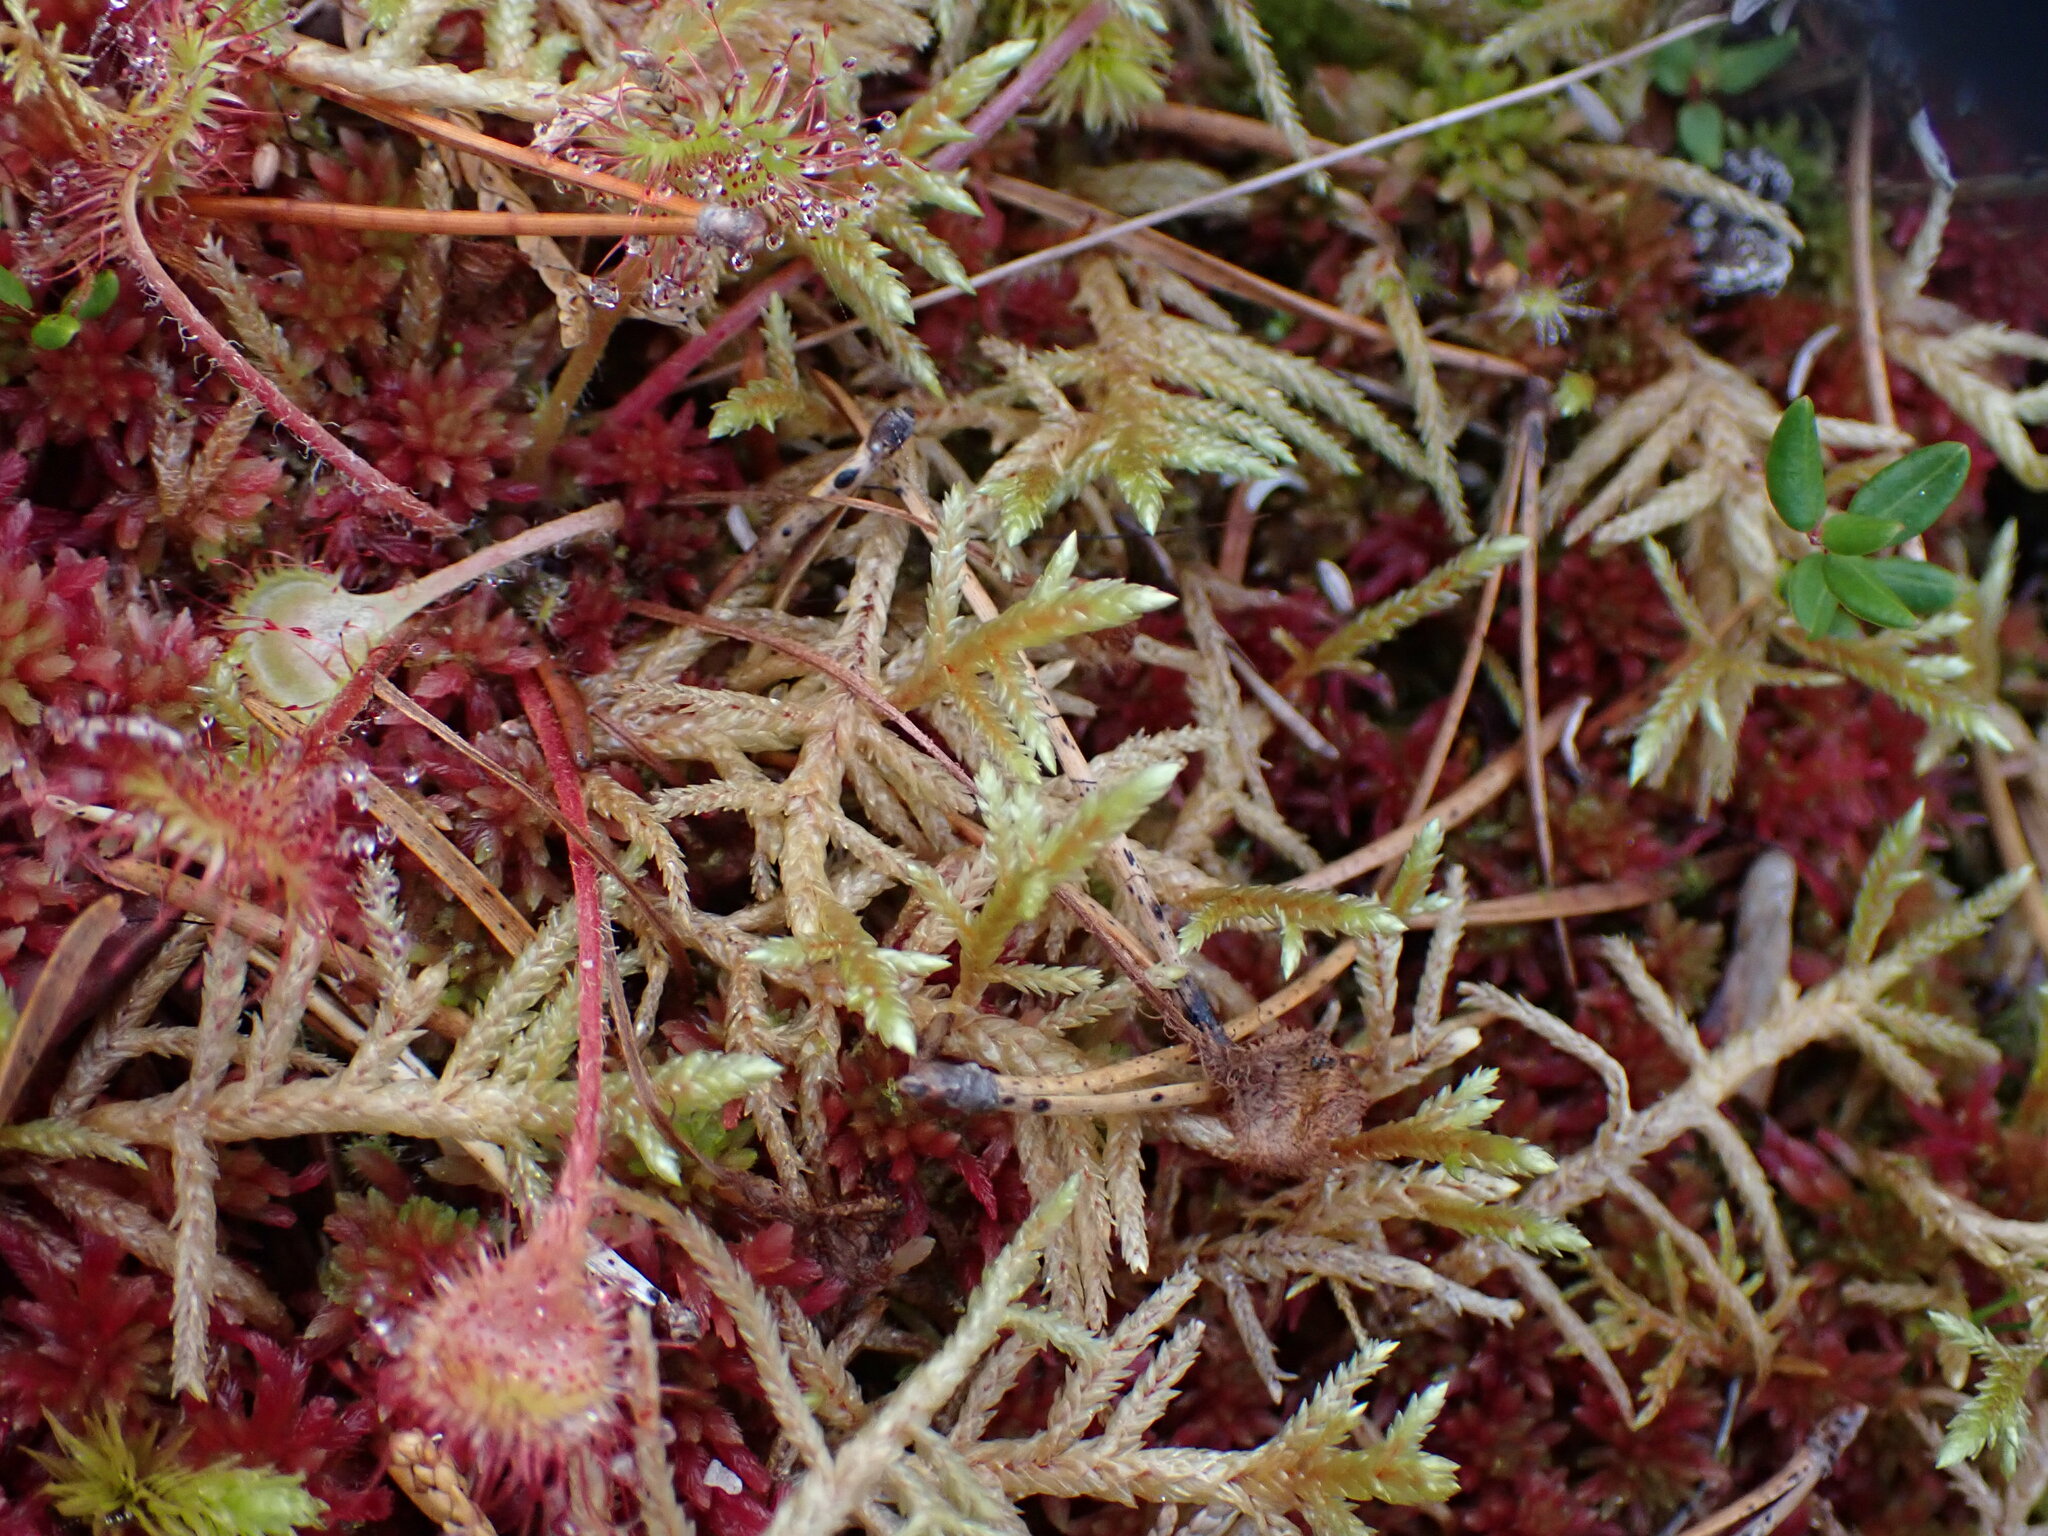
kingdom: Plantae
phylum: Bryophyta
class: Bryopsida
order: Hypnales
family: Hylocomiaceae
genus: Pleurozium
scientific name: Pleurozium schreberi
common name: Red-stemmed feather moss
